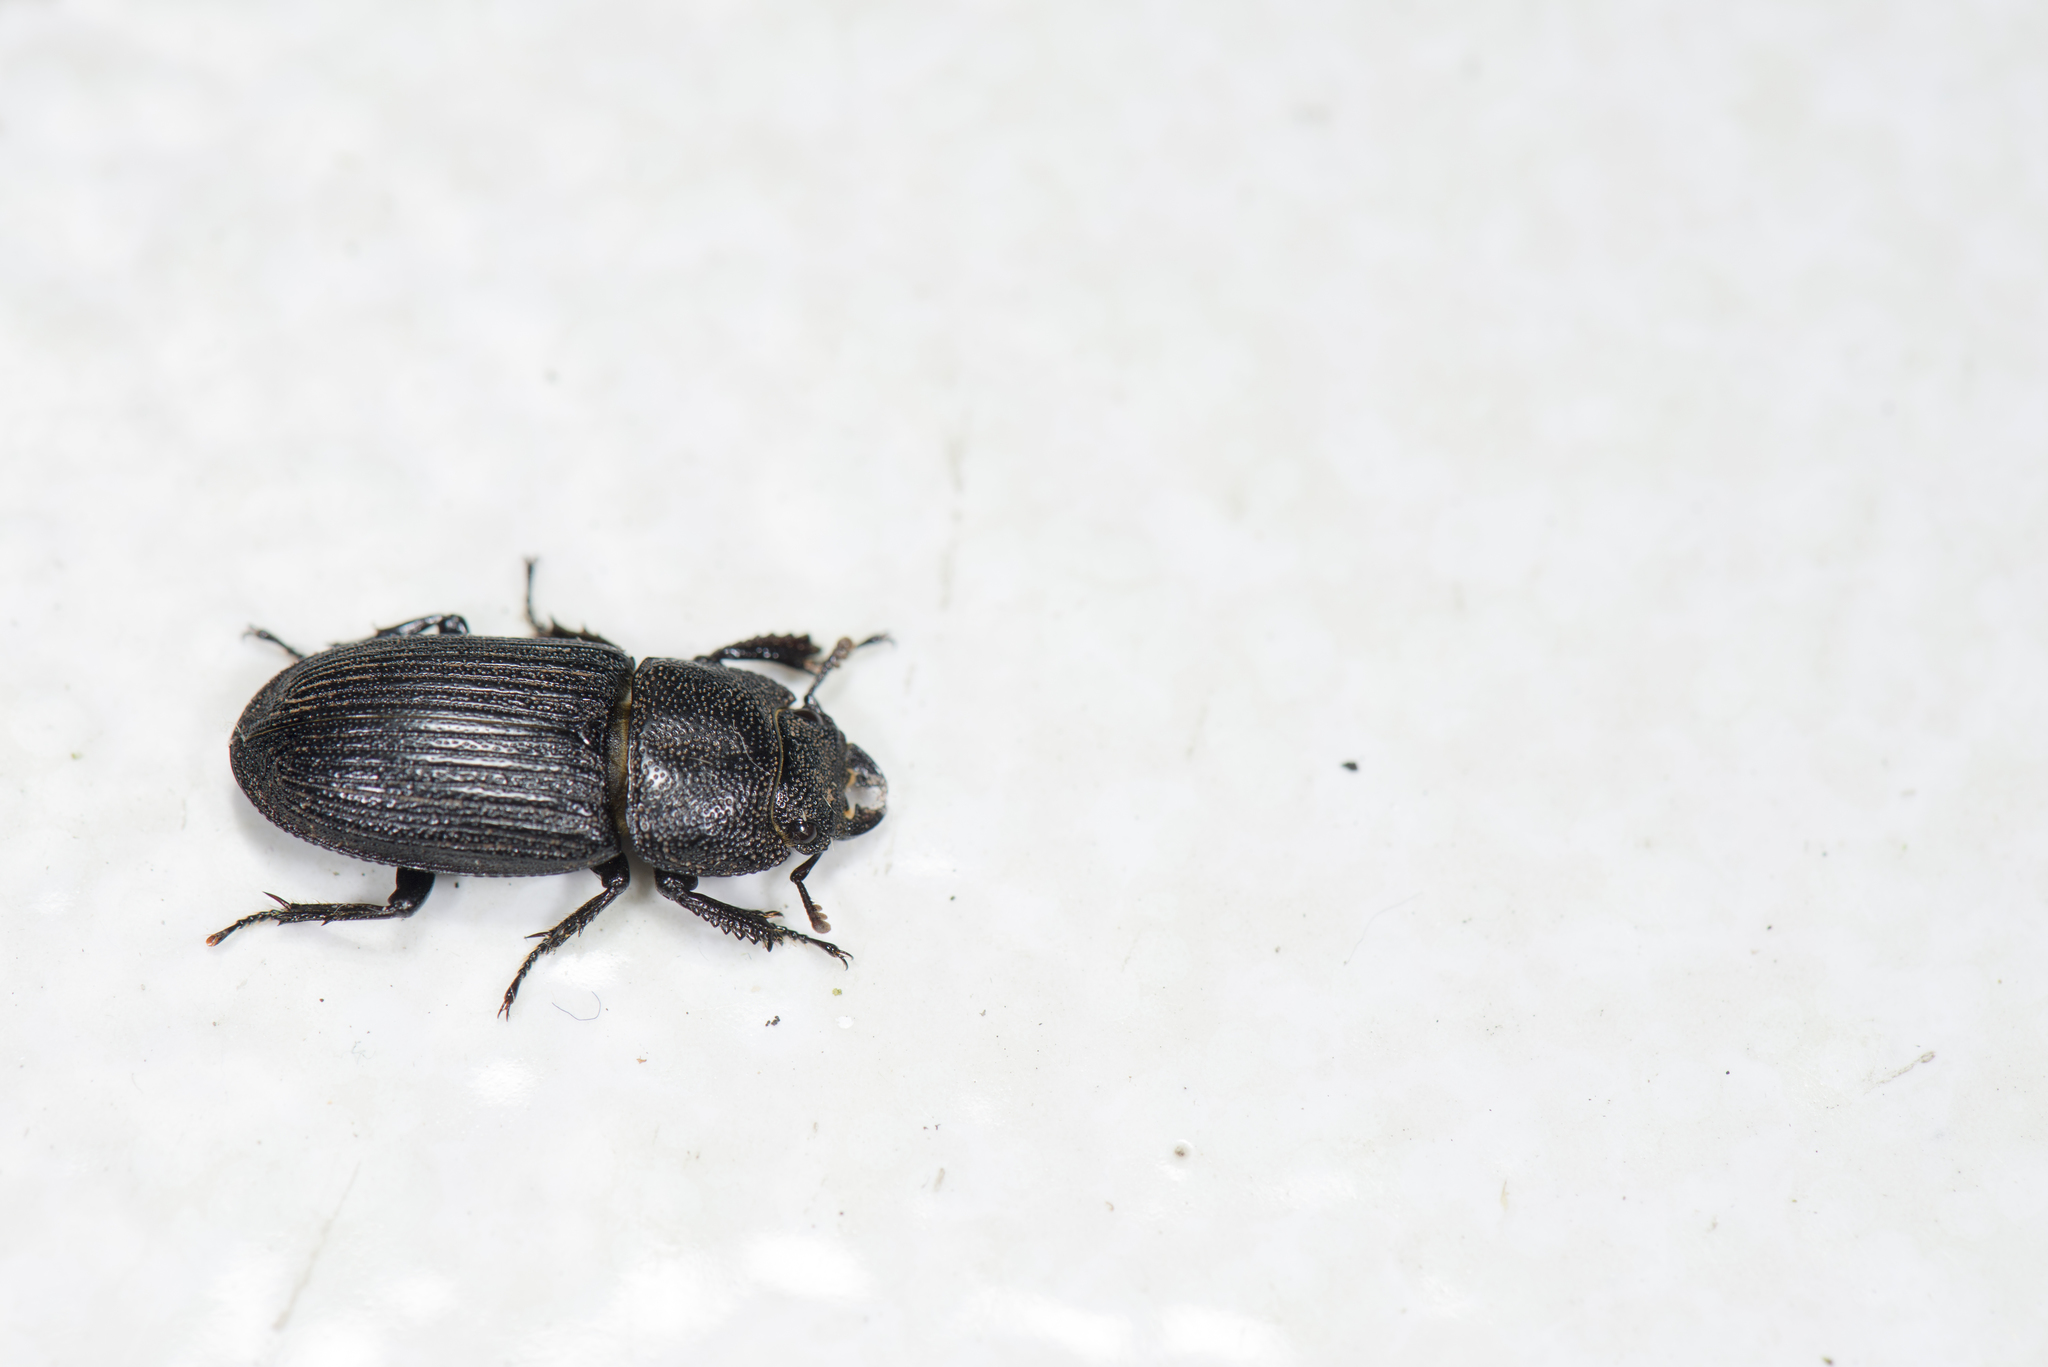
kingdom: Animalia
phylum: Arthropoda
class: Insecta
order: Coleoptera
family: Lucanidae
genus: Aegus
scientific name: Aegus laevicollis
